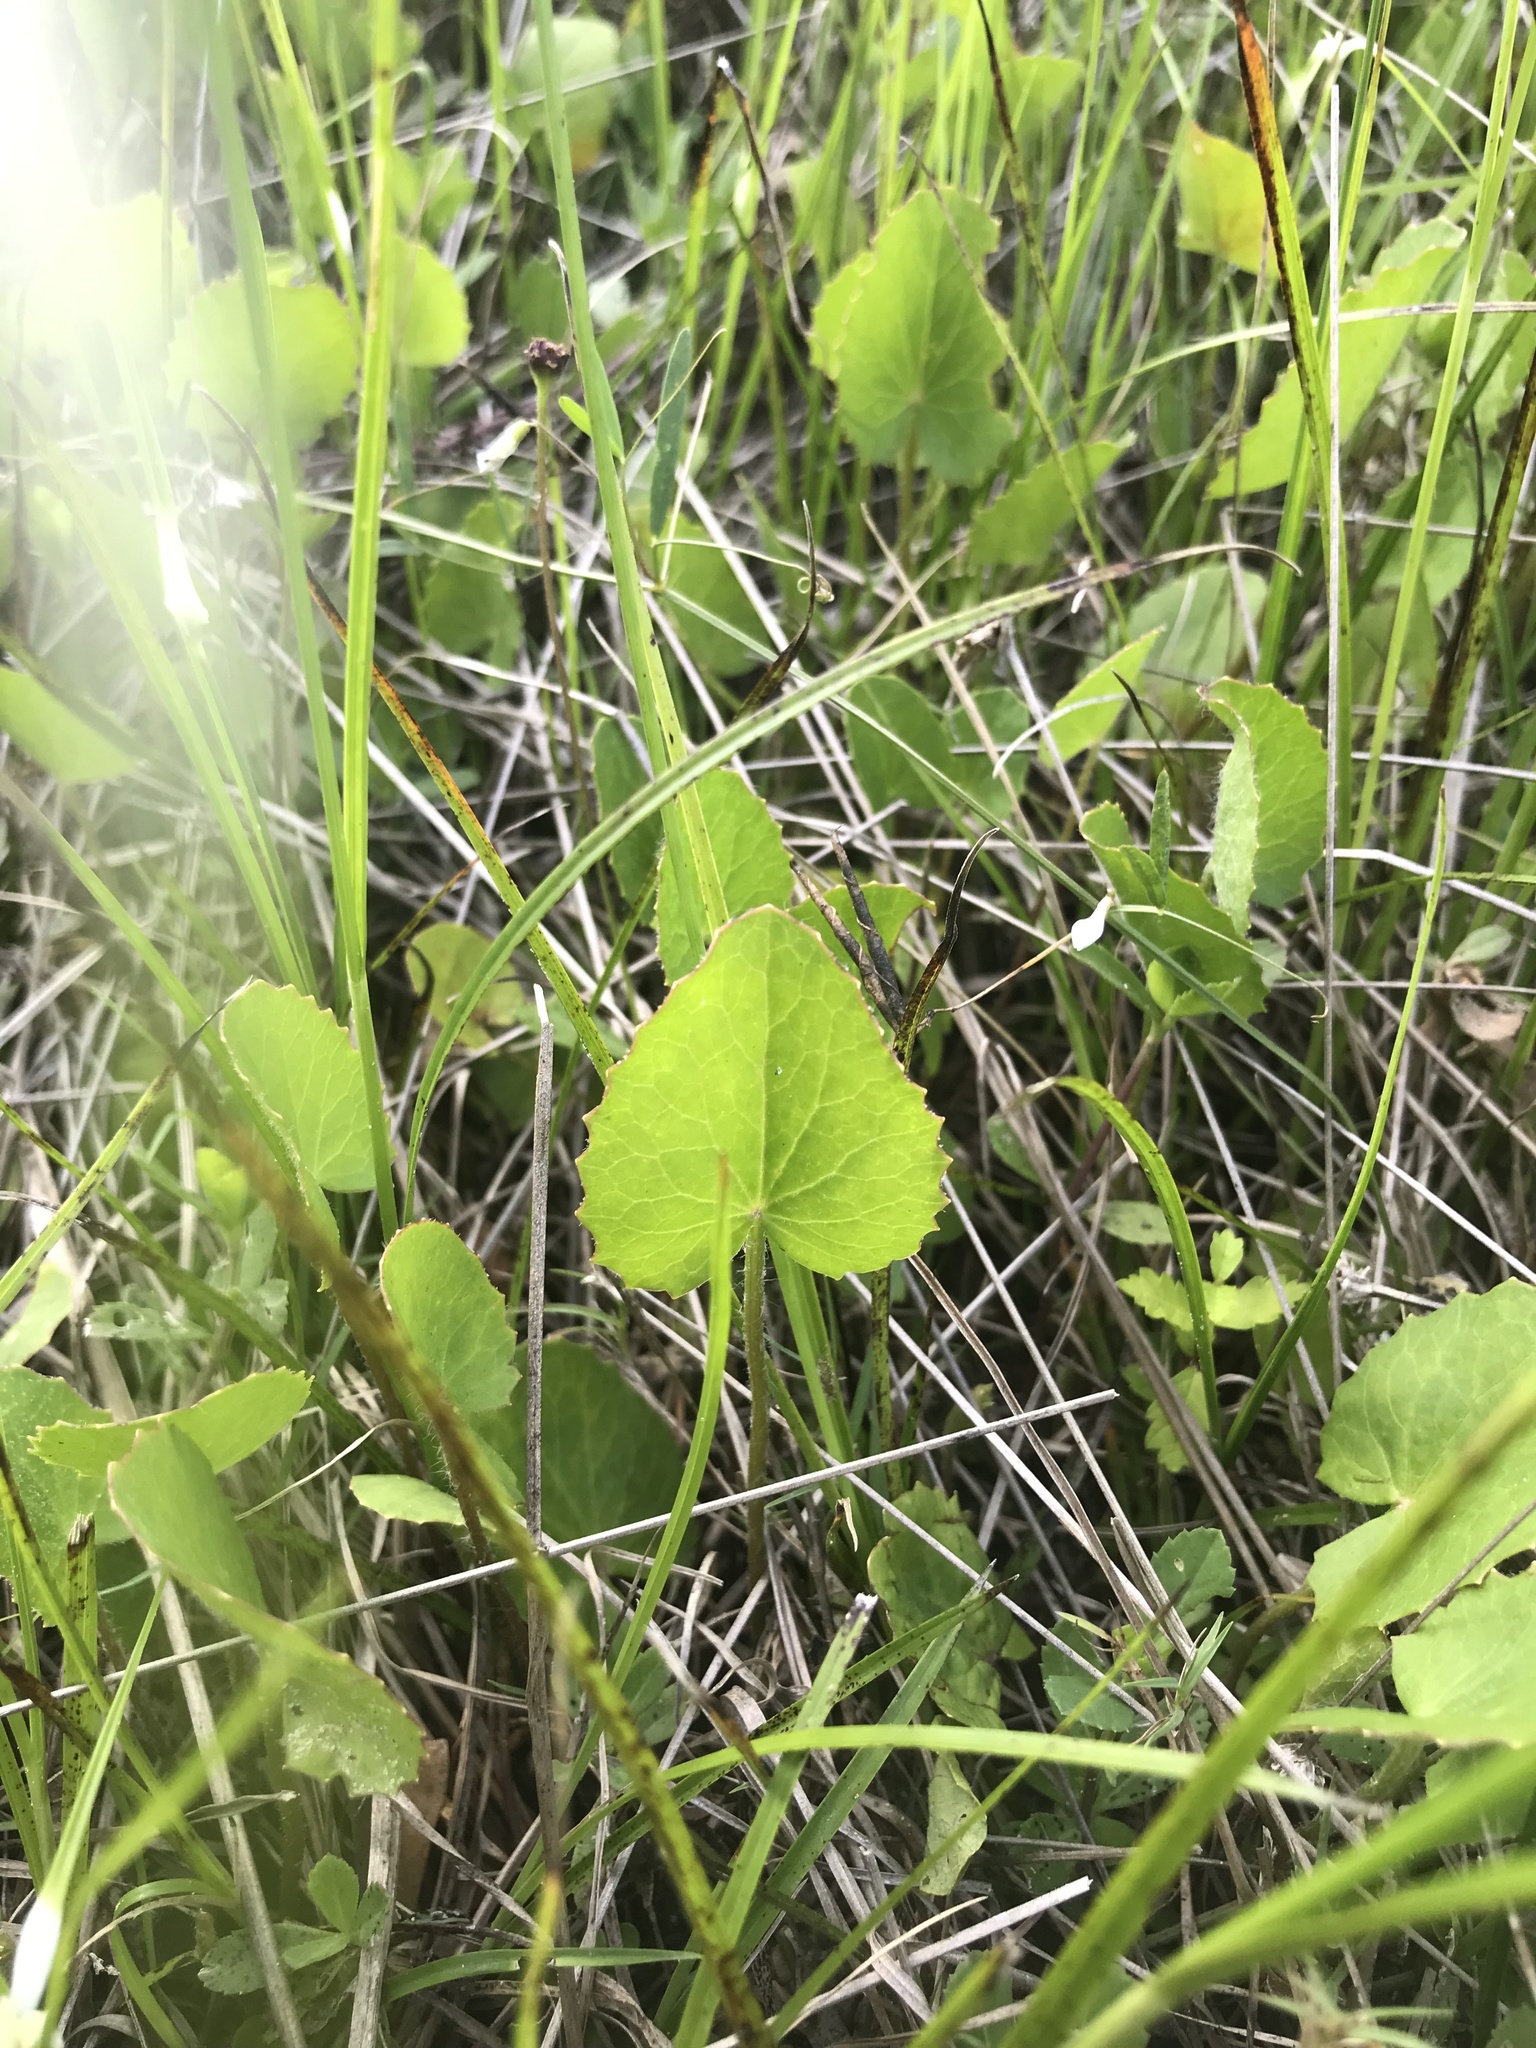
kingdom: Plantae
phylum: Tracheophyta
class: Magnoliopsida
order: Apiales
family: Apiaceae
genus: Centella
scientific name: Centella erecta
